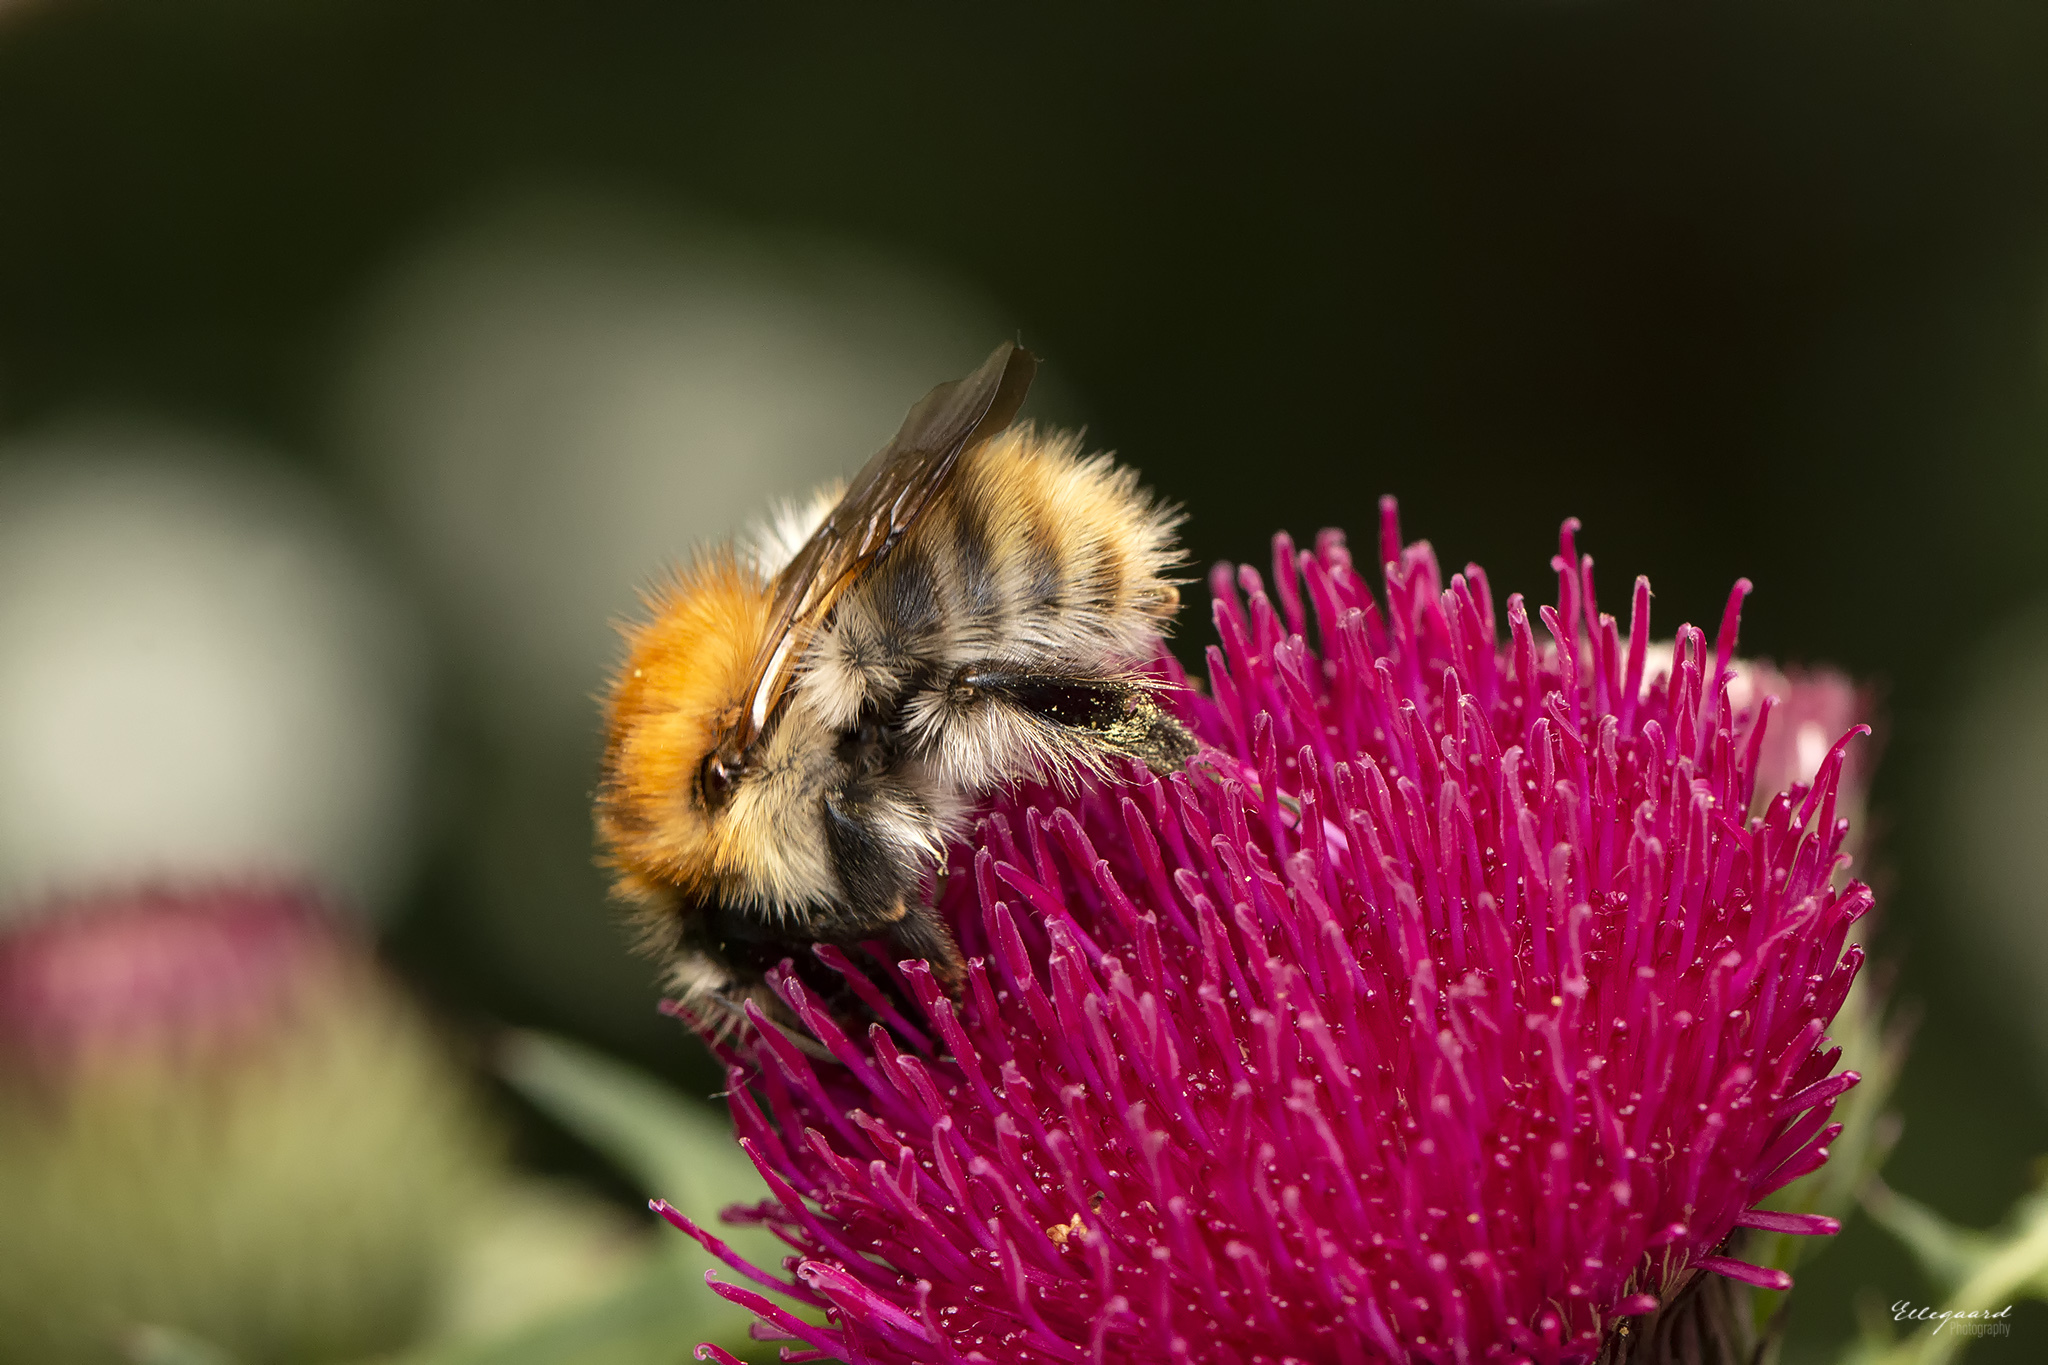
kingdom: Animalia
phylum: Arthropoda
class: Insecta
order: Hymenoptera
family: Apidae
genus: Bombus
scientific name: Bombus pascuorum
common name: Common carder bee
